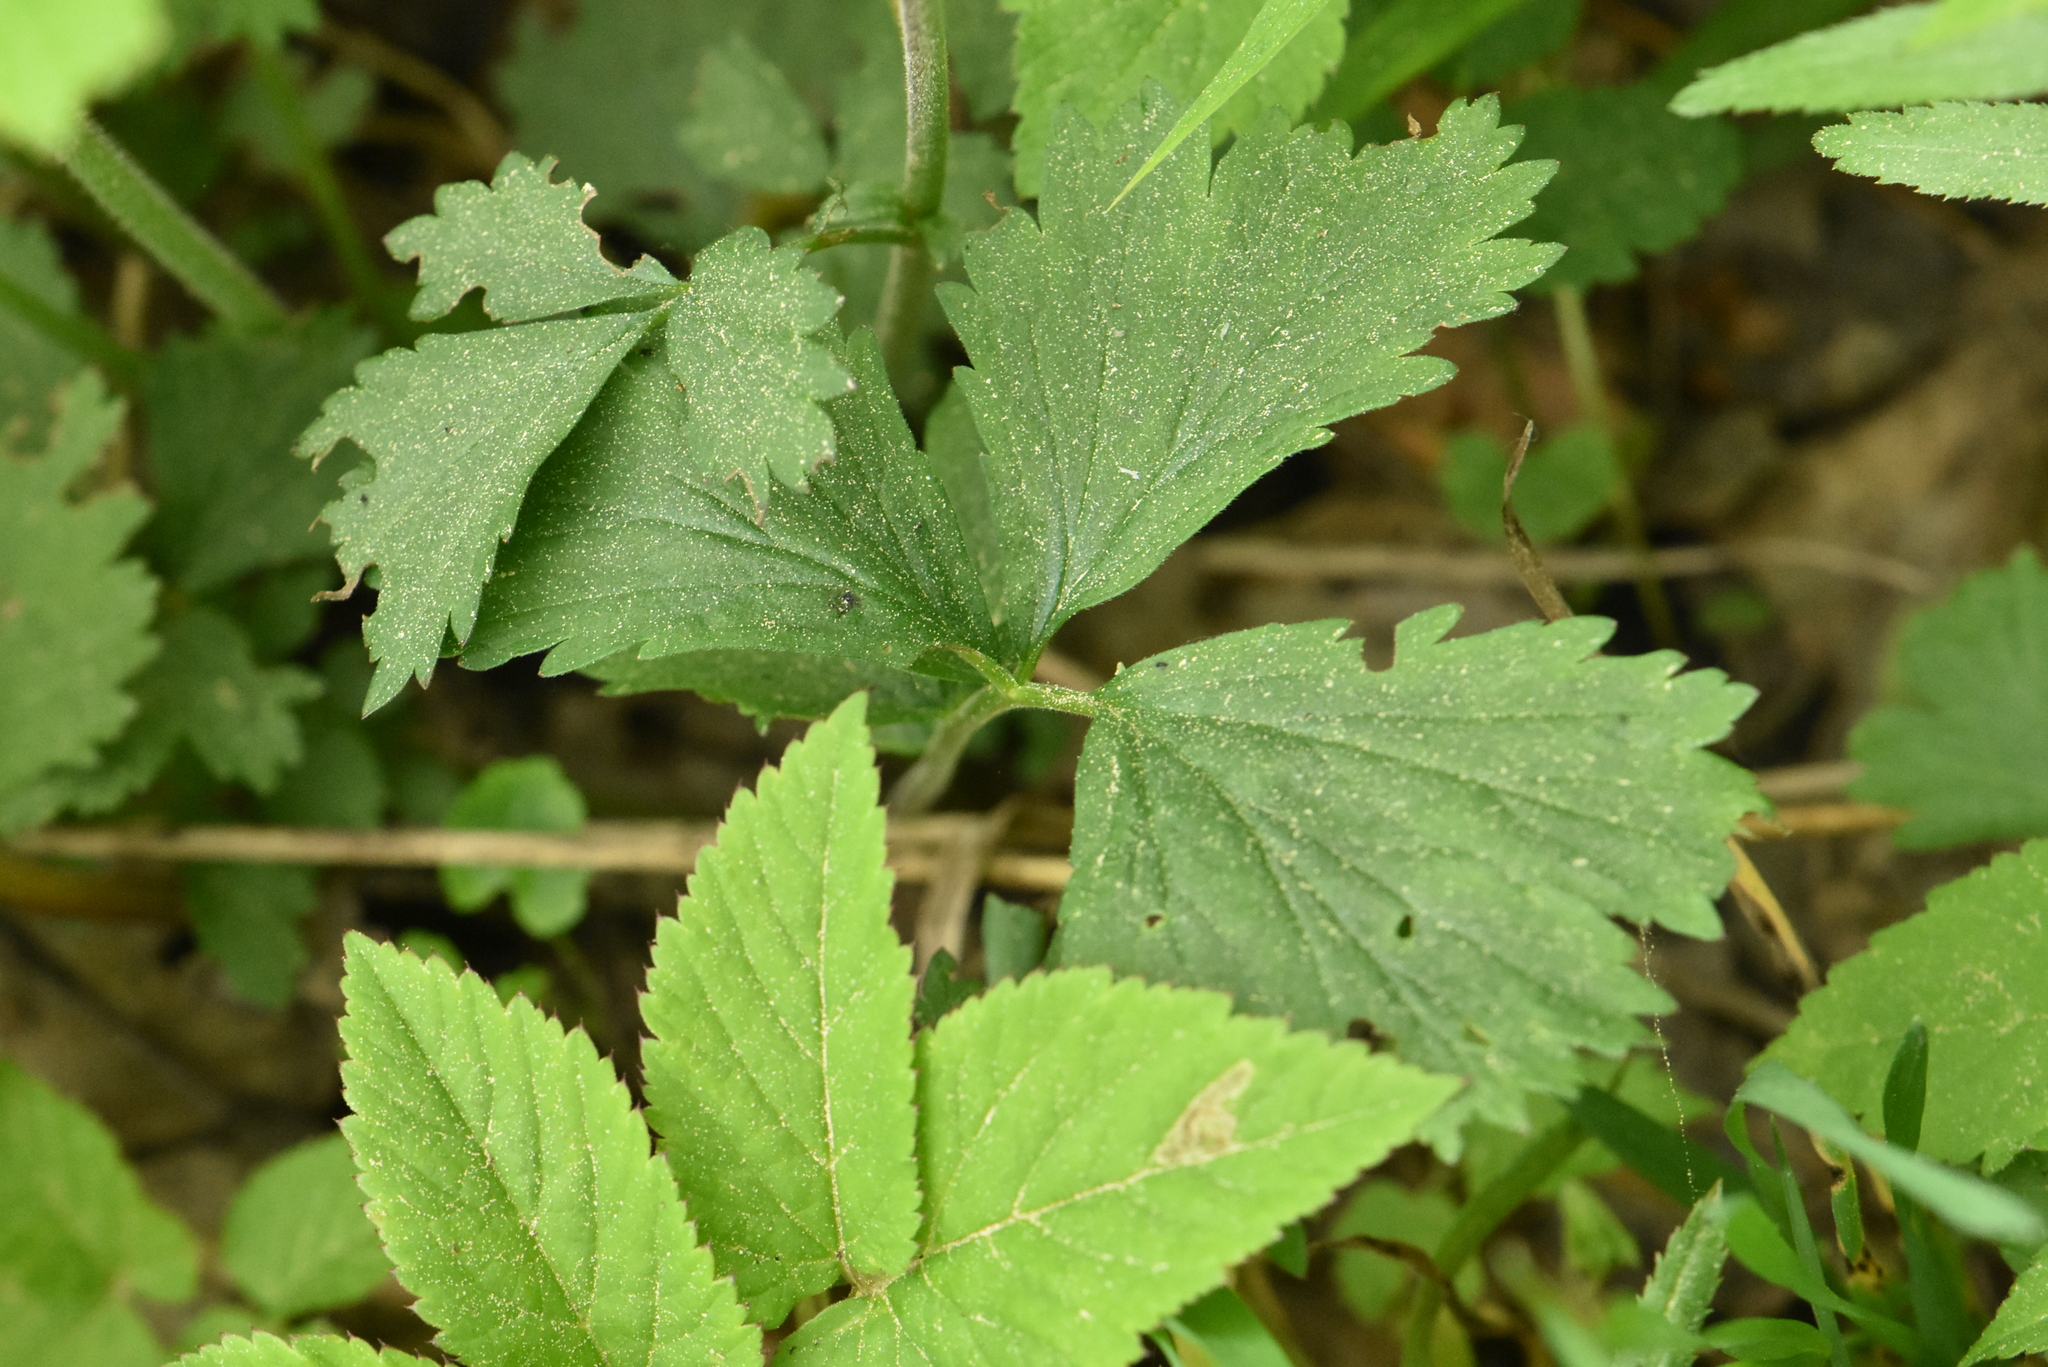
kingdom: Plantae
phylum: Tracheophyta
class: Magnoliopsida
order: Rosales
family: Rosaceae
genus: Geum
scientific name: Geum rivale
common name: Water avens
